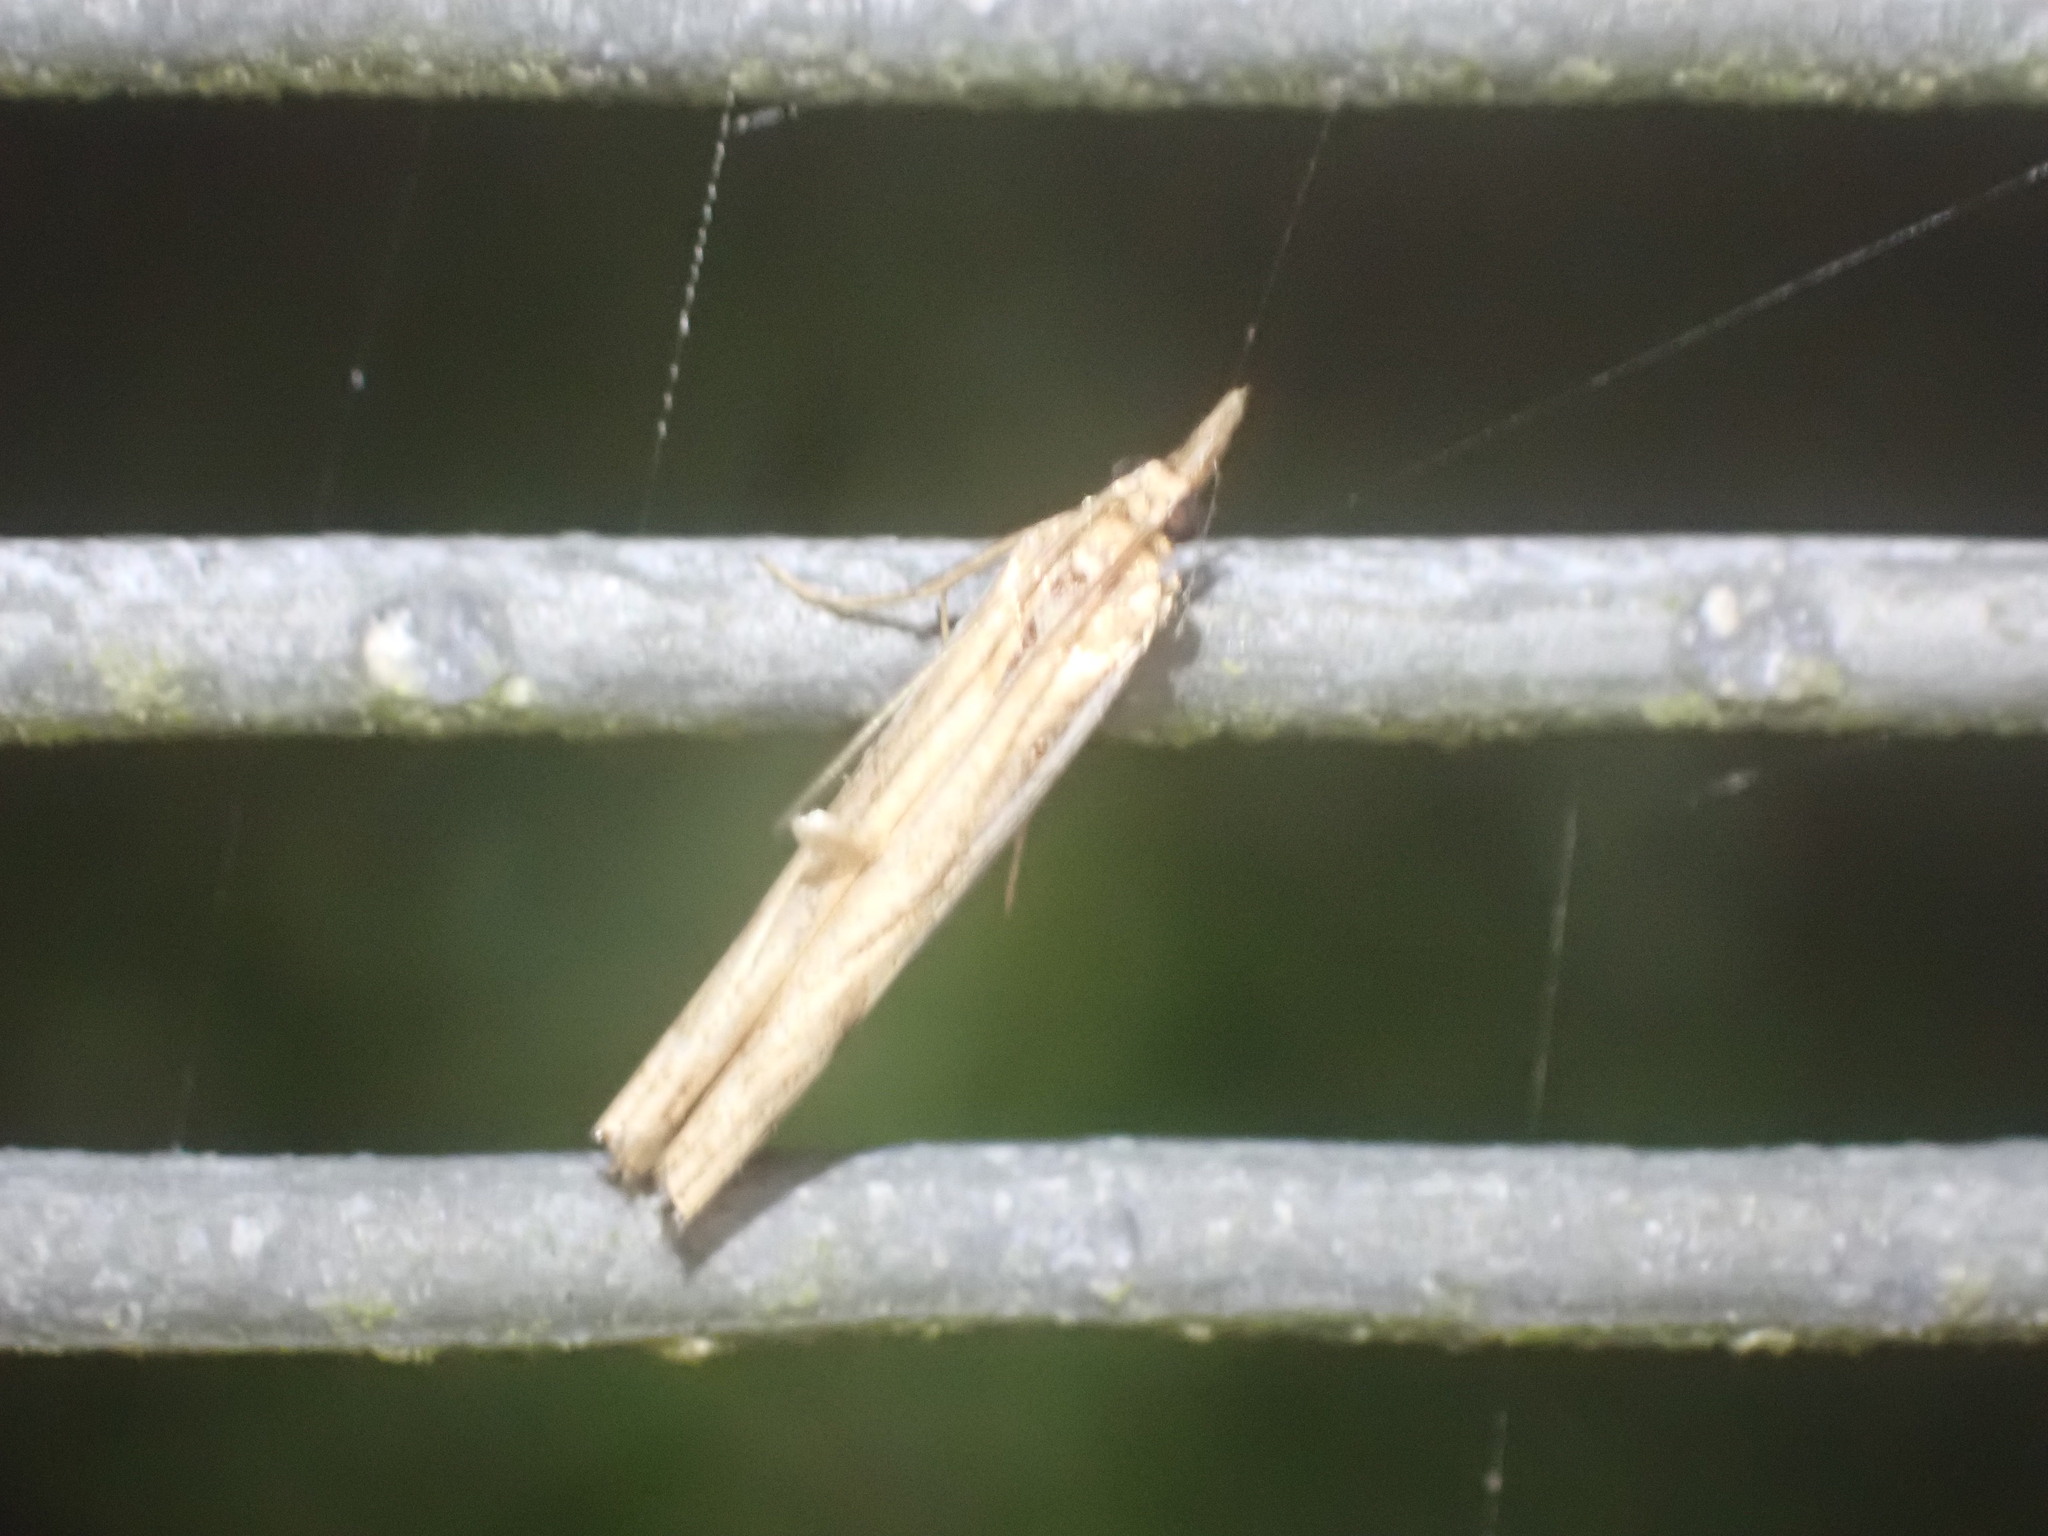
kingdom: Animalia
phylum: Arthropoda
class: Insecta
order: Lepidoptera
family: Crambidae
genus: Orocrambus
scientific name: Orocrambus flexuosellus
